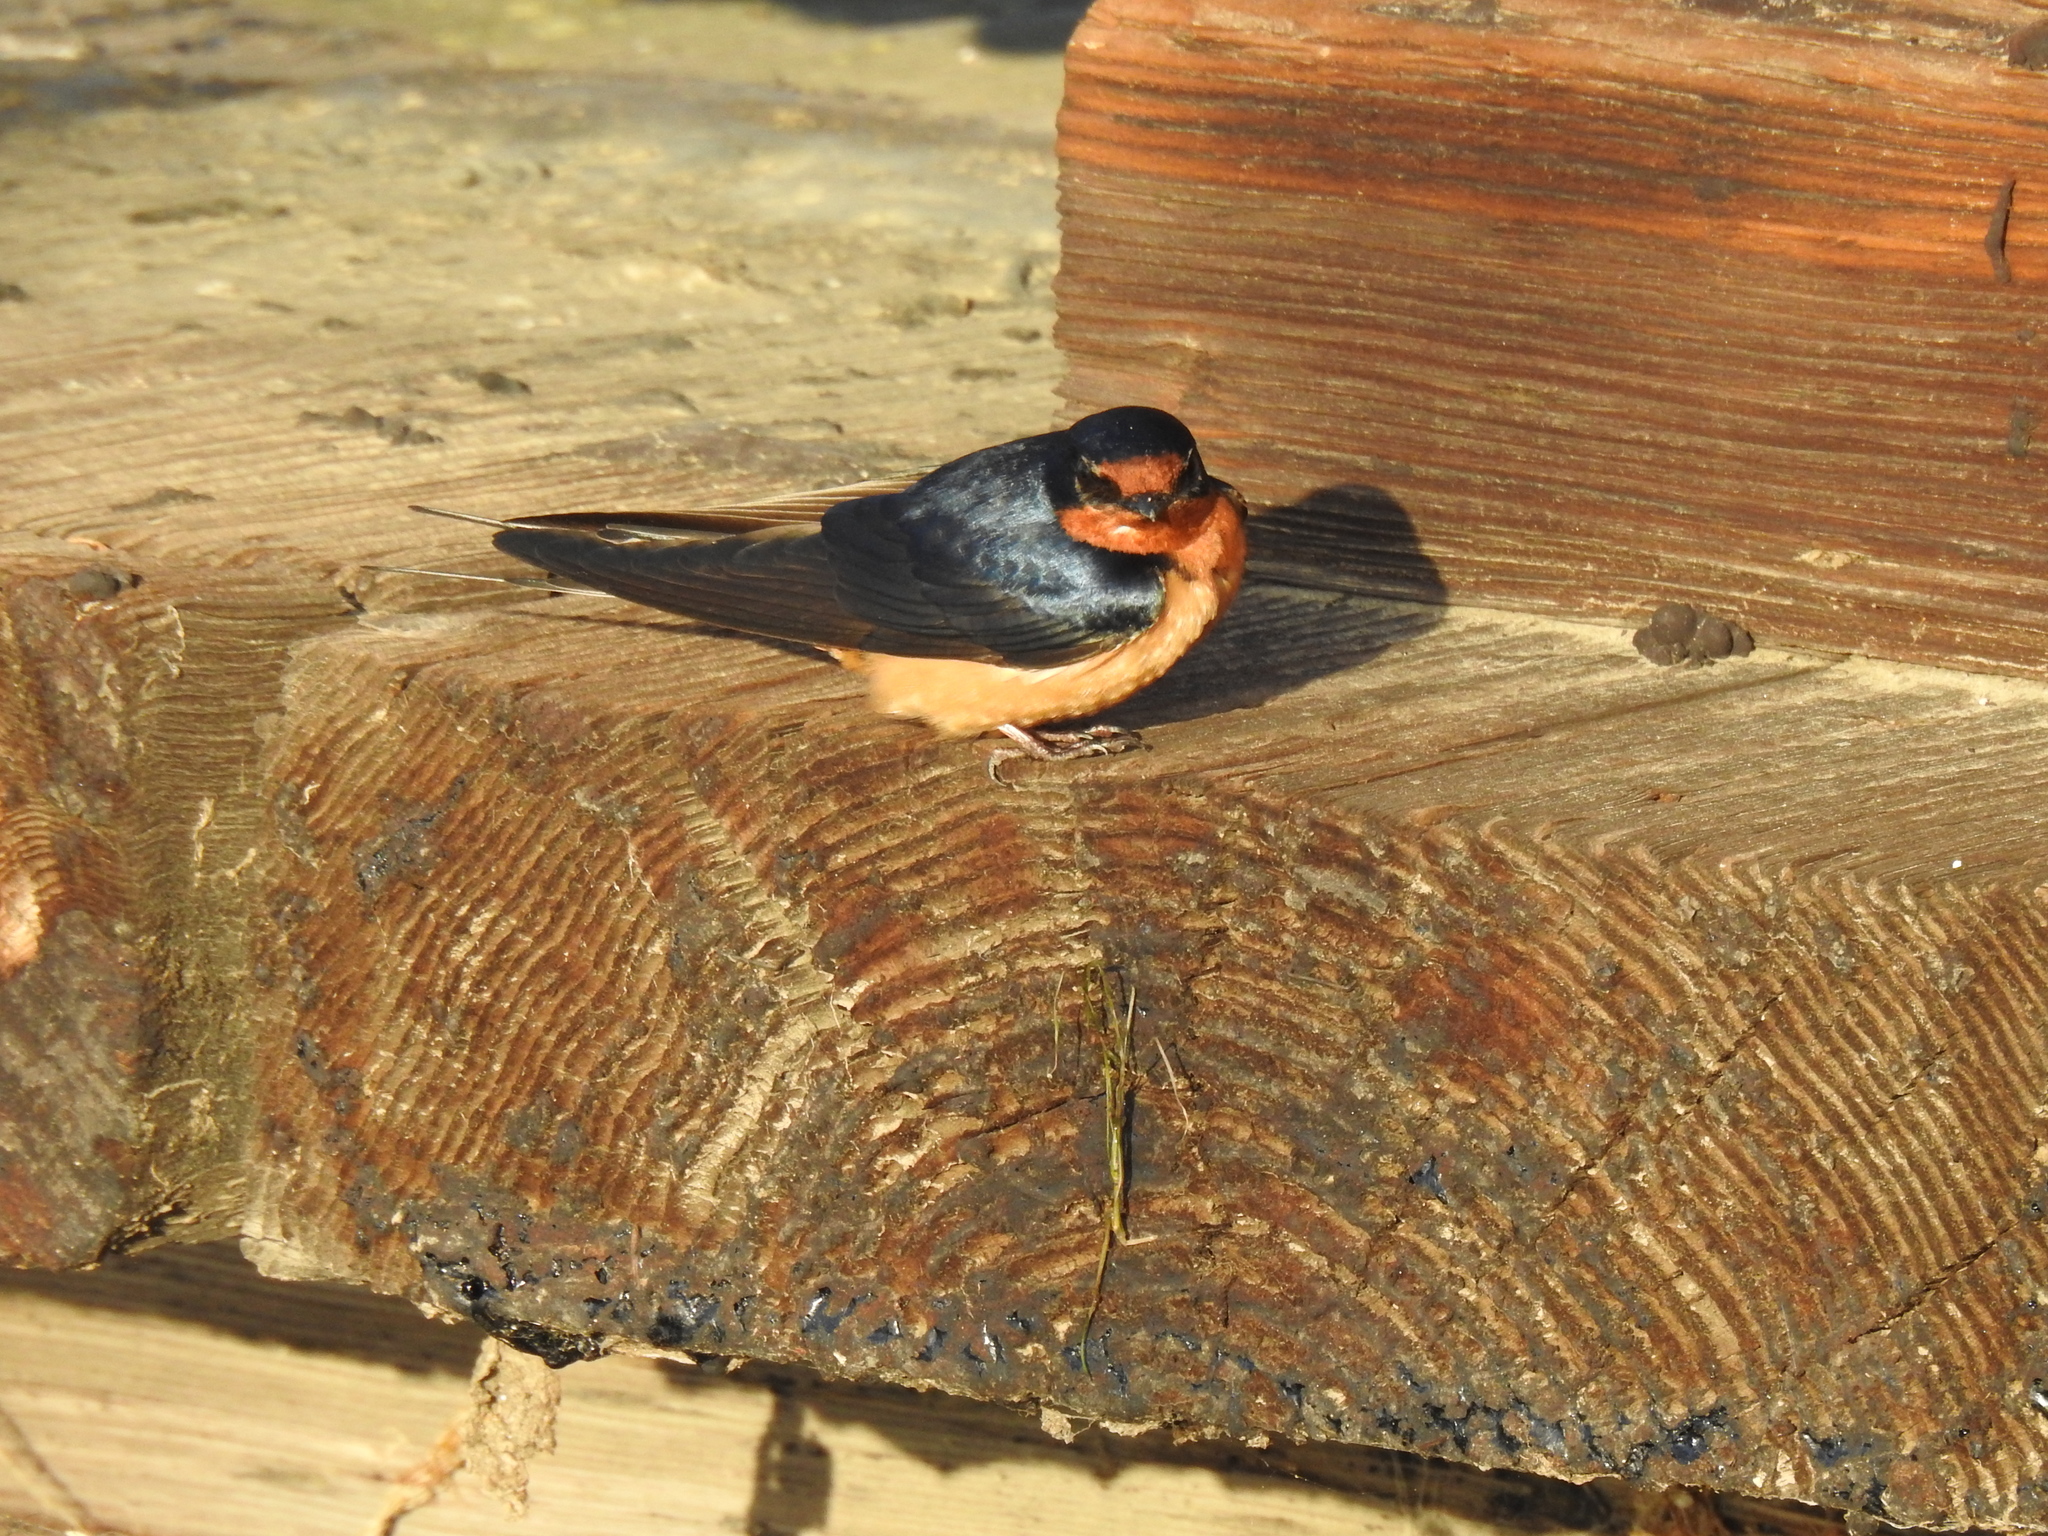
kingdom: Animalia
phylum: Chordata
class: Aves
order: Passeriformes
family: Hirundinidae
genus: Hirundo
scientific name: Hirundo rustica
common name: Barn swallow
